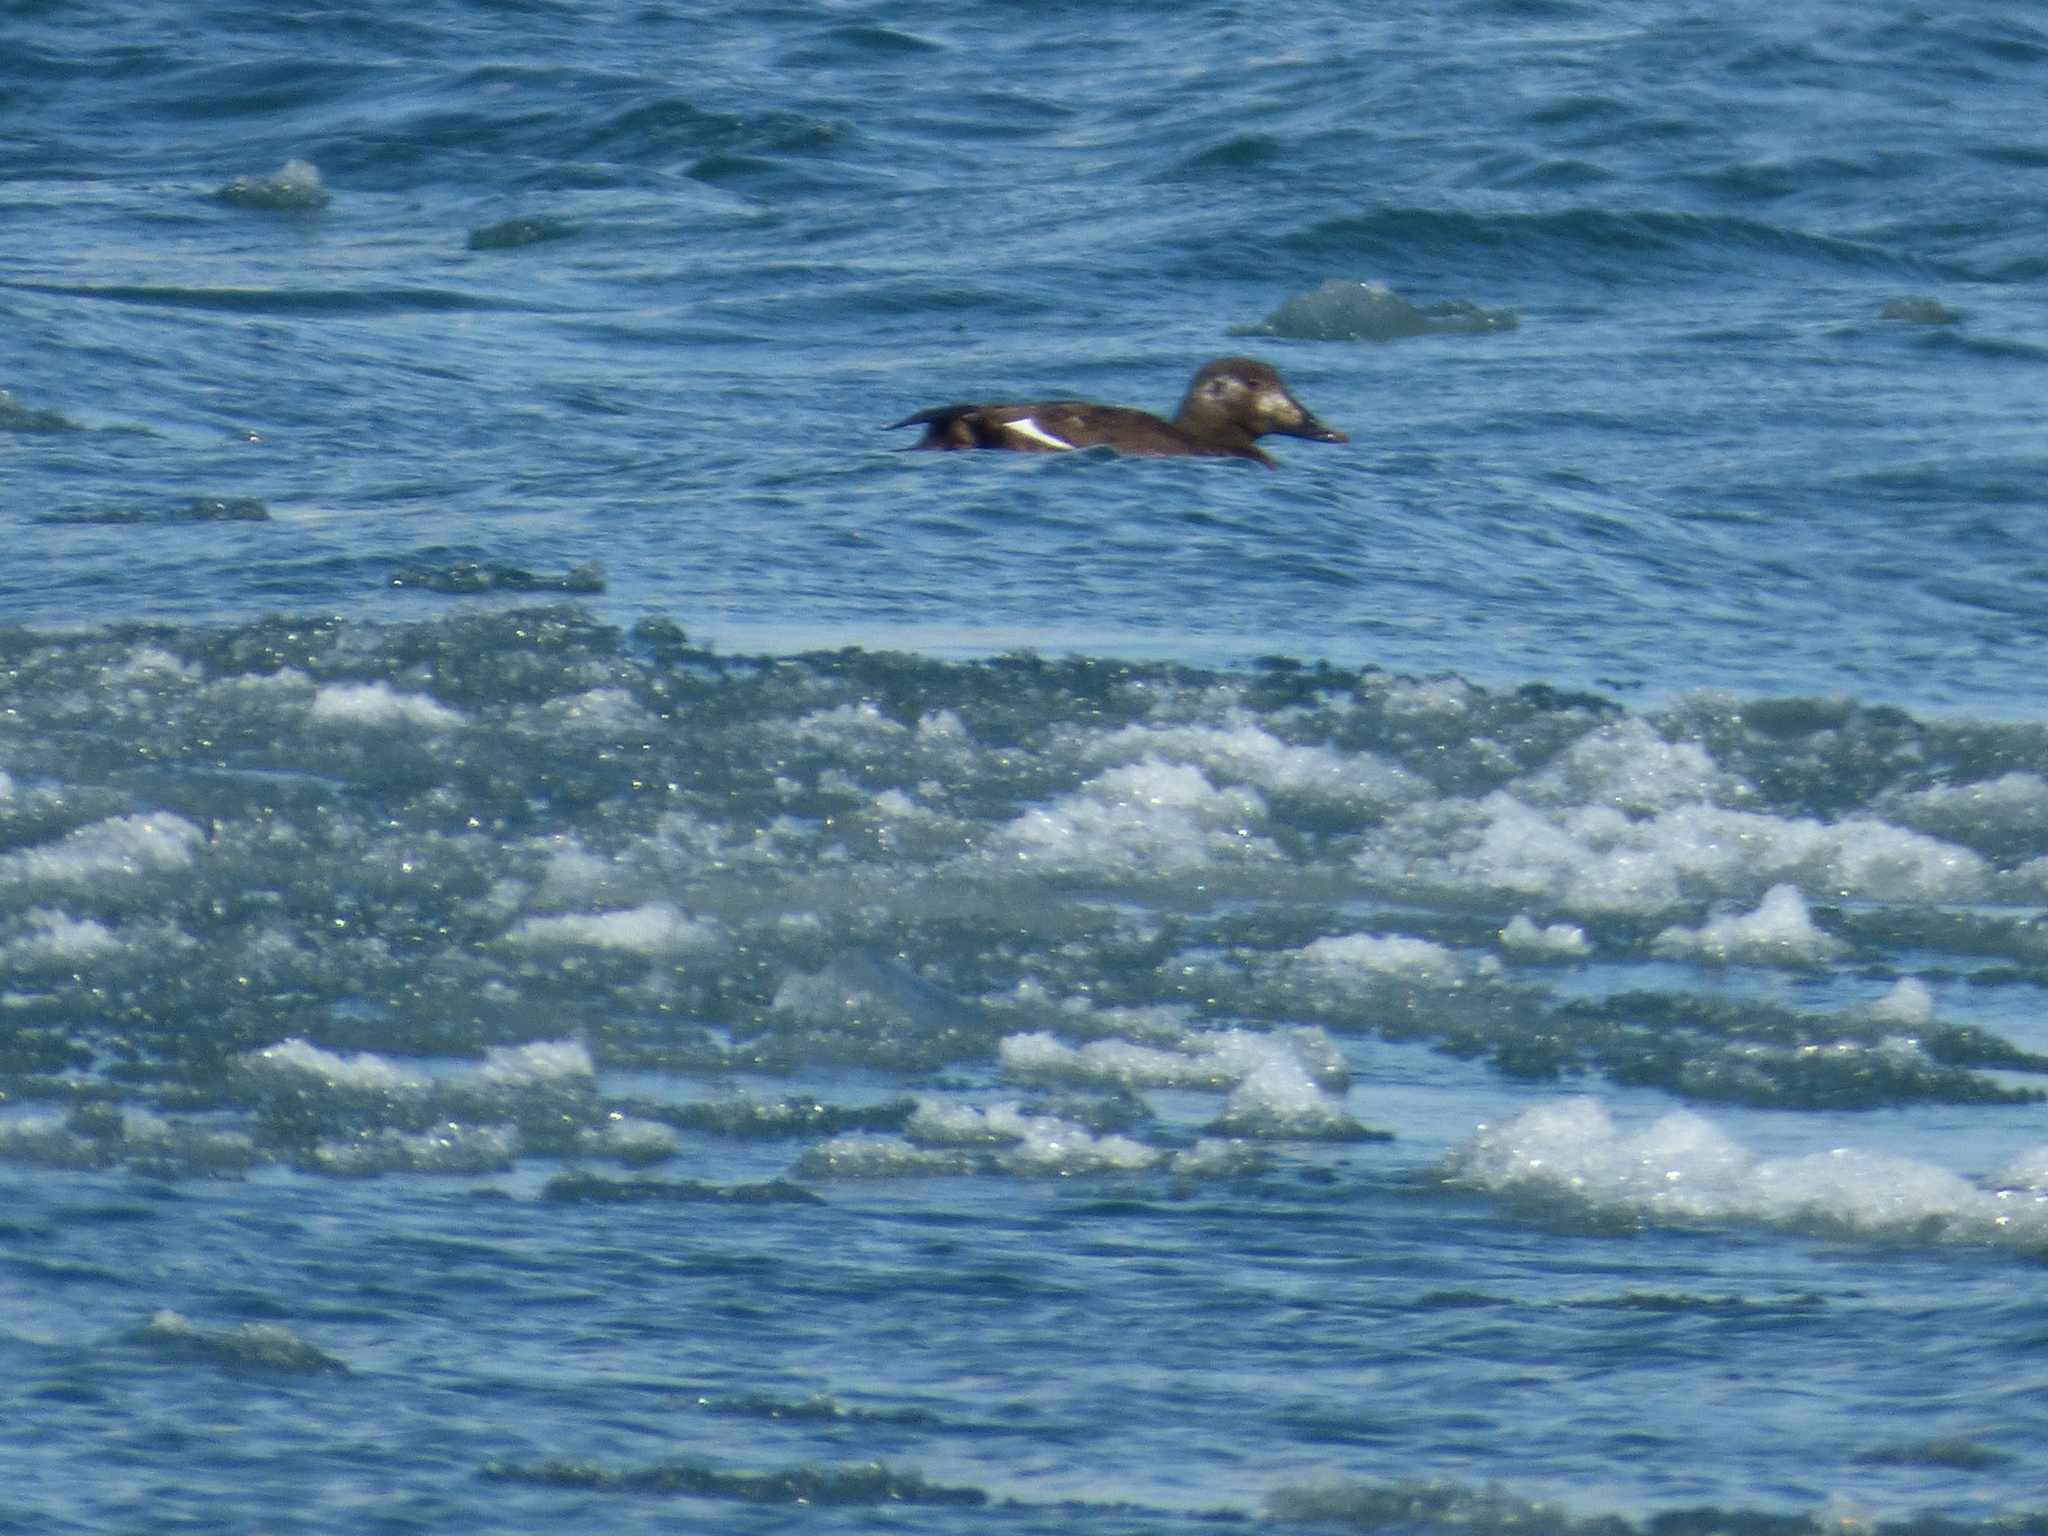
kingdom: Animalia
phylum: Chordata
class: Aves
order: Anseriformes
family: Anatidae
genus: Melanitta
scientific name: Melanitta deglandi
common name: White-winged scoter
